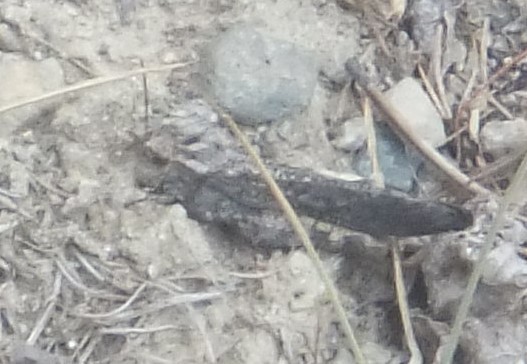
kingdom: Animalia
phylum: Arthropoda
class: Insecta
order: Orthoptera
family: Acrididae
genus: Trimerotropis
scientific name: Trimerotropis verruculata
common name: Crackling forest grasshopper
